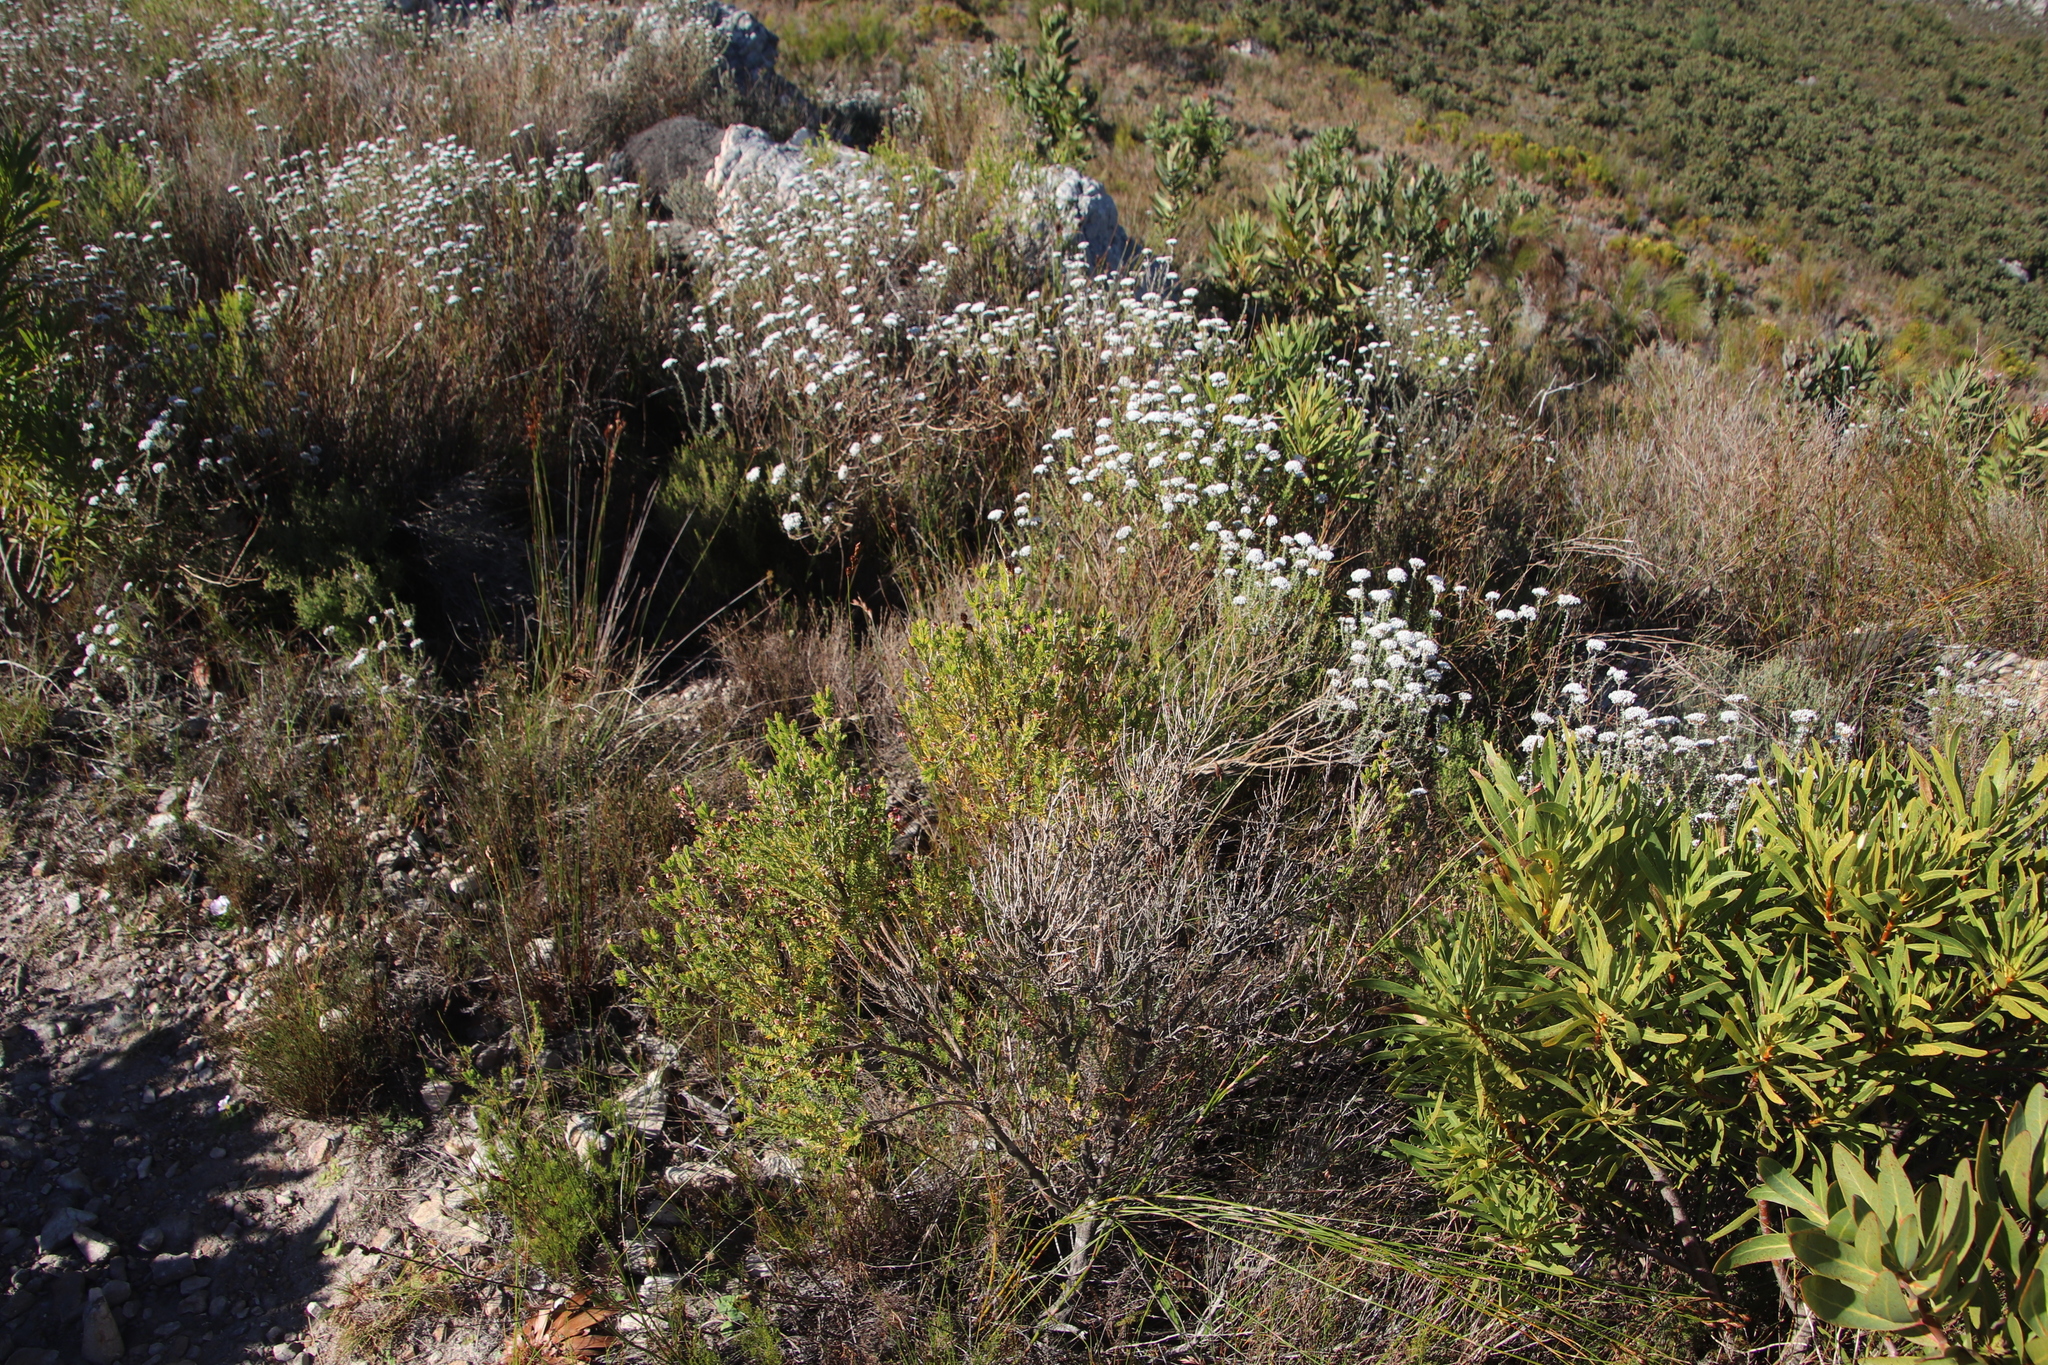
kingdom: Plantae
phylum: Tracheophyta
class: Magnoliopsida
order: Ericales
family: Ericaceae
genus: Erica
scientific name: Erica taxifolia
